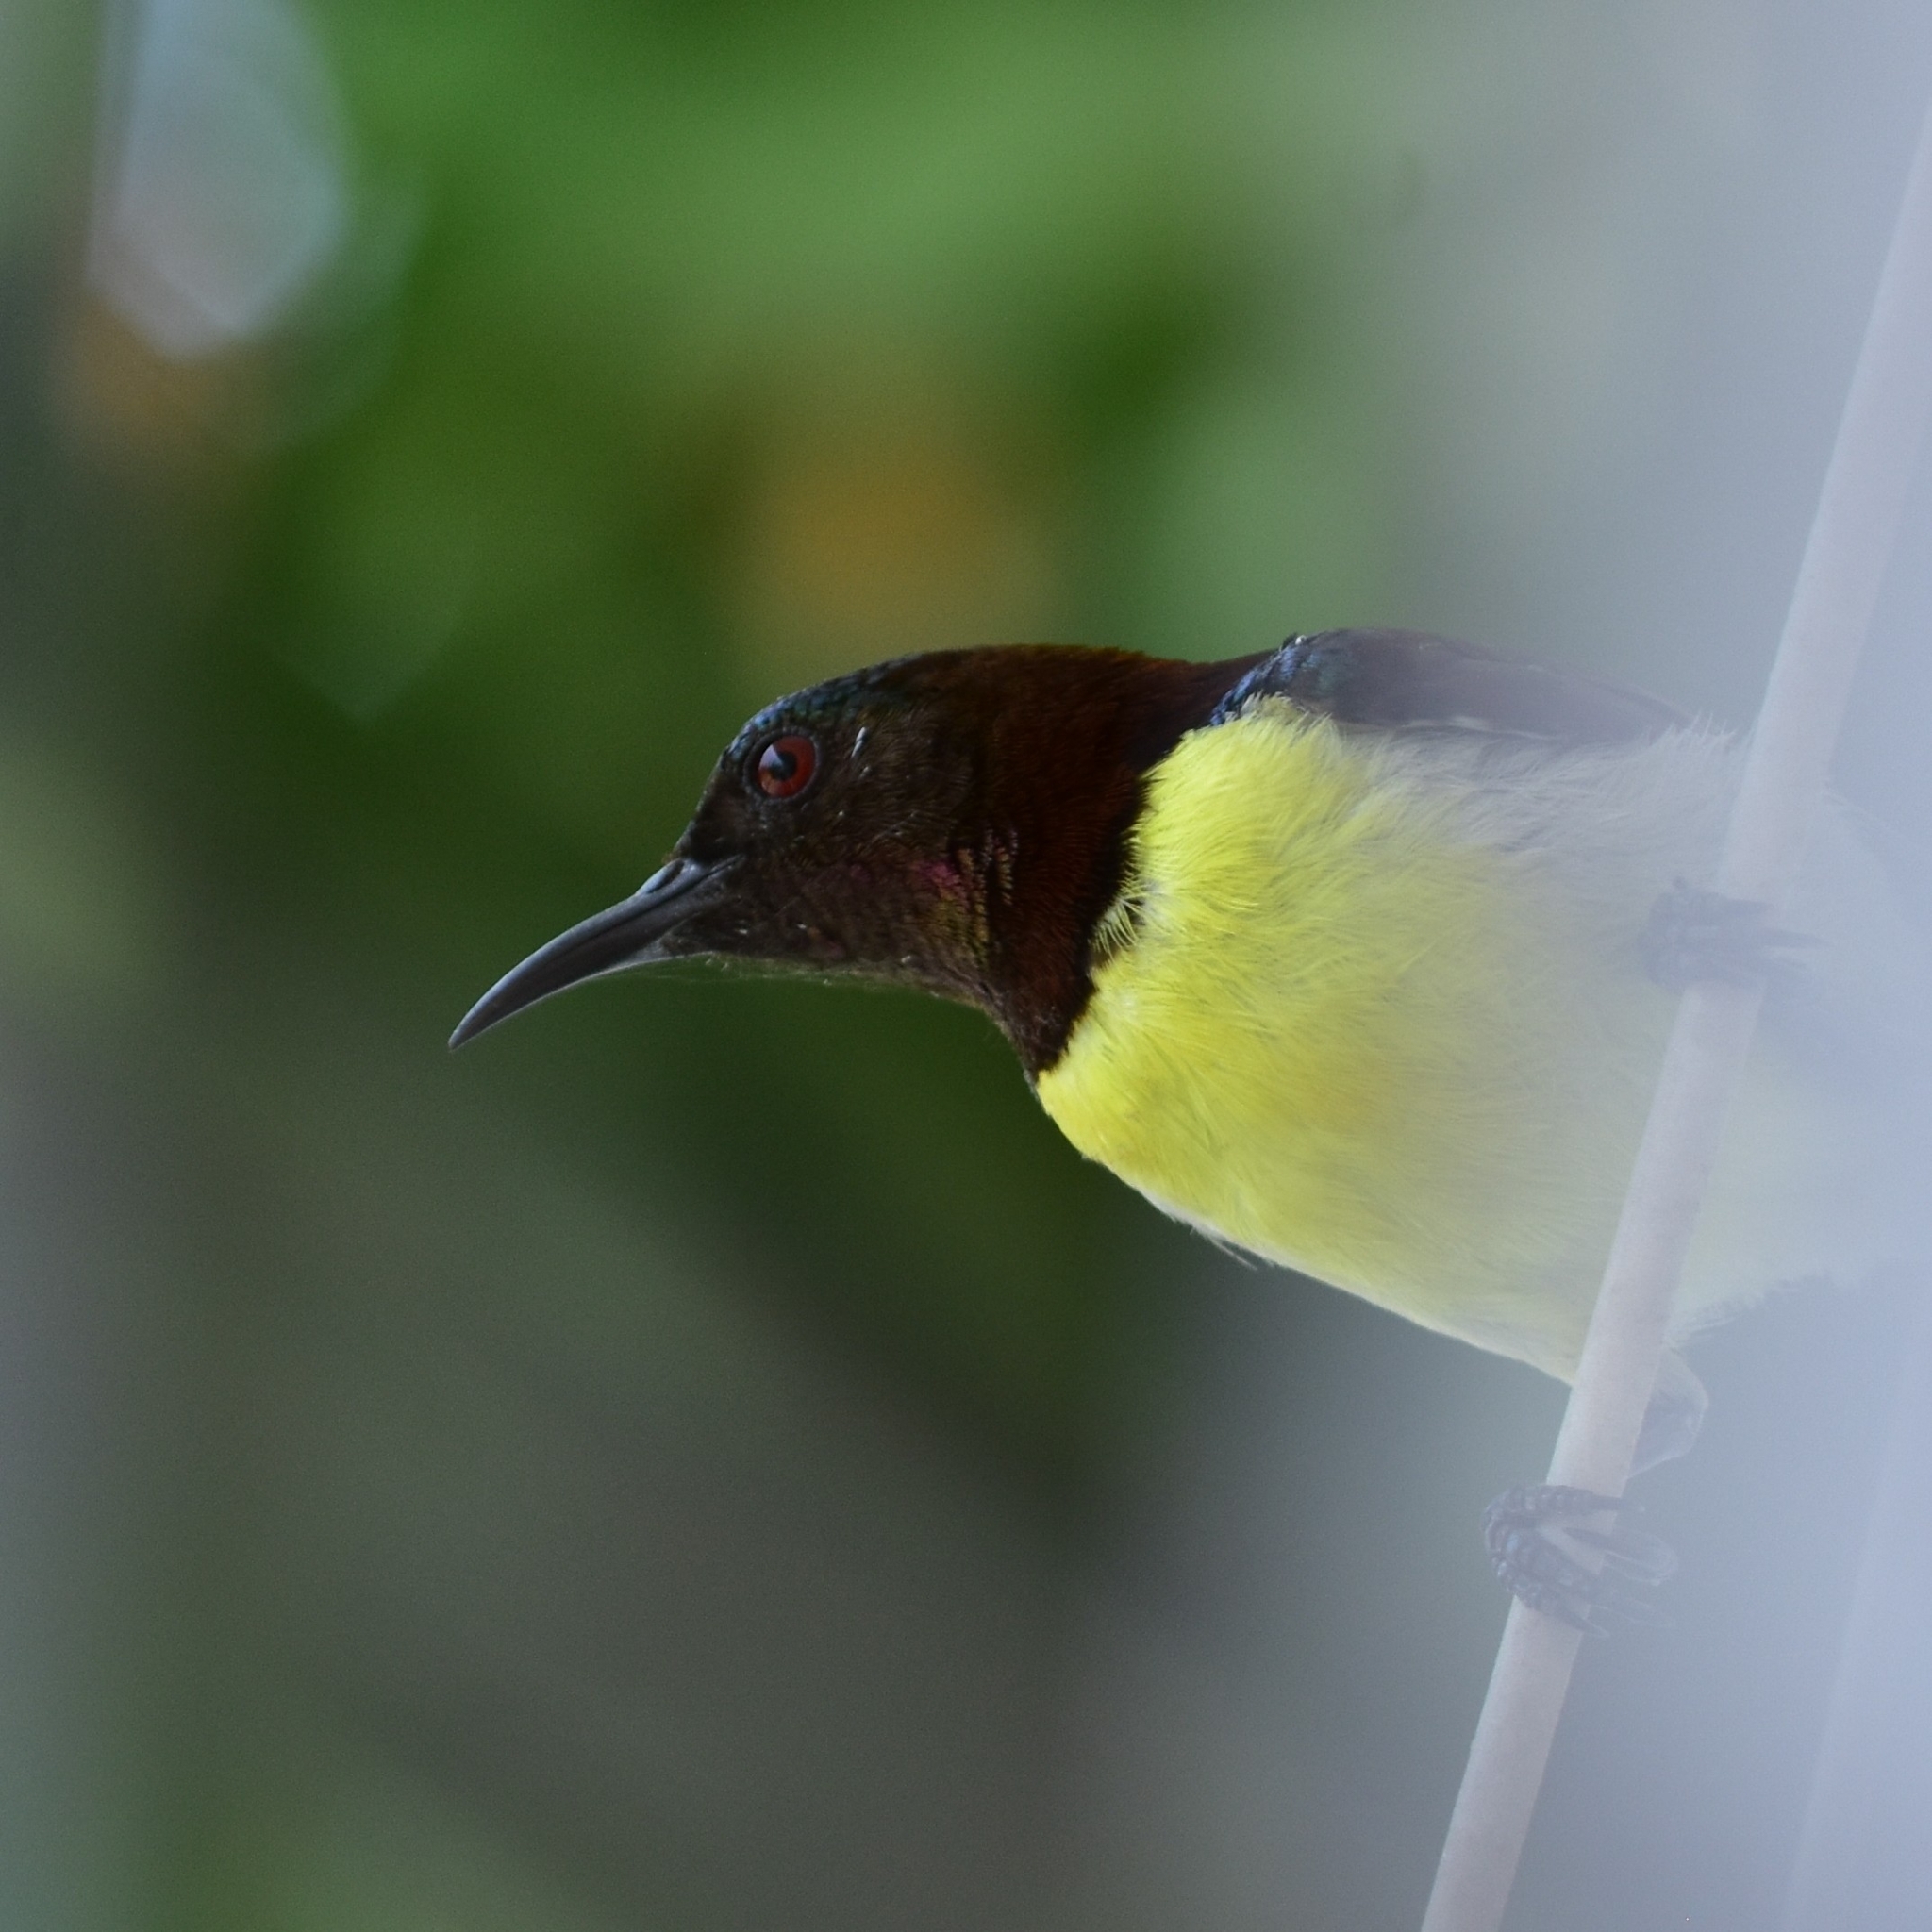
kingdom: Animalia
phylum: Chordata
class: Aves
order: Passeriformes
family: Nectariniidae
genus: Leptocoma
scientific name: Leptocoma zeylonica
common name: Purple-rumped sunbird
